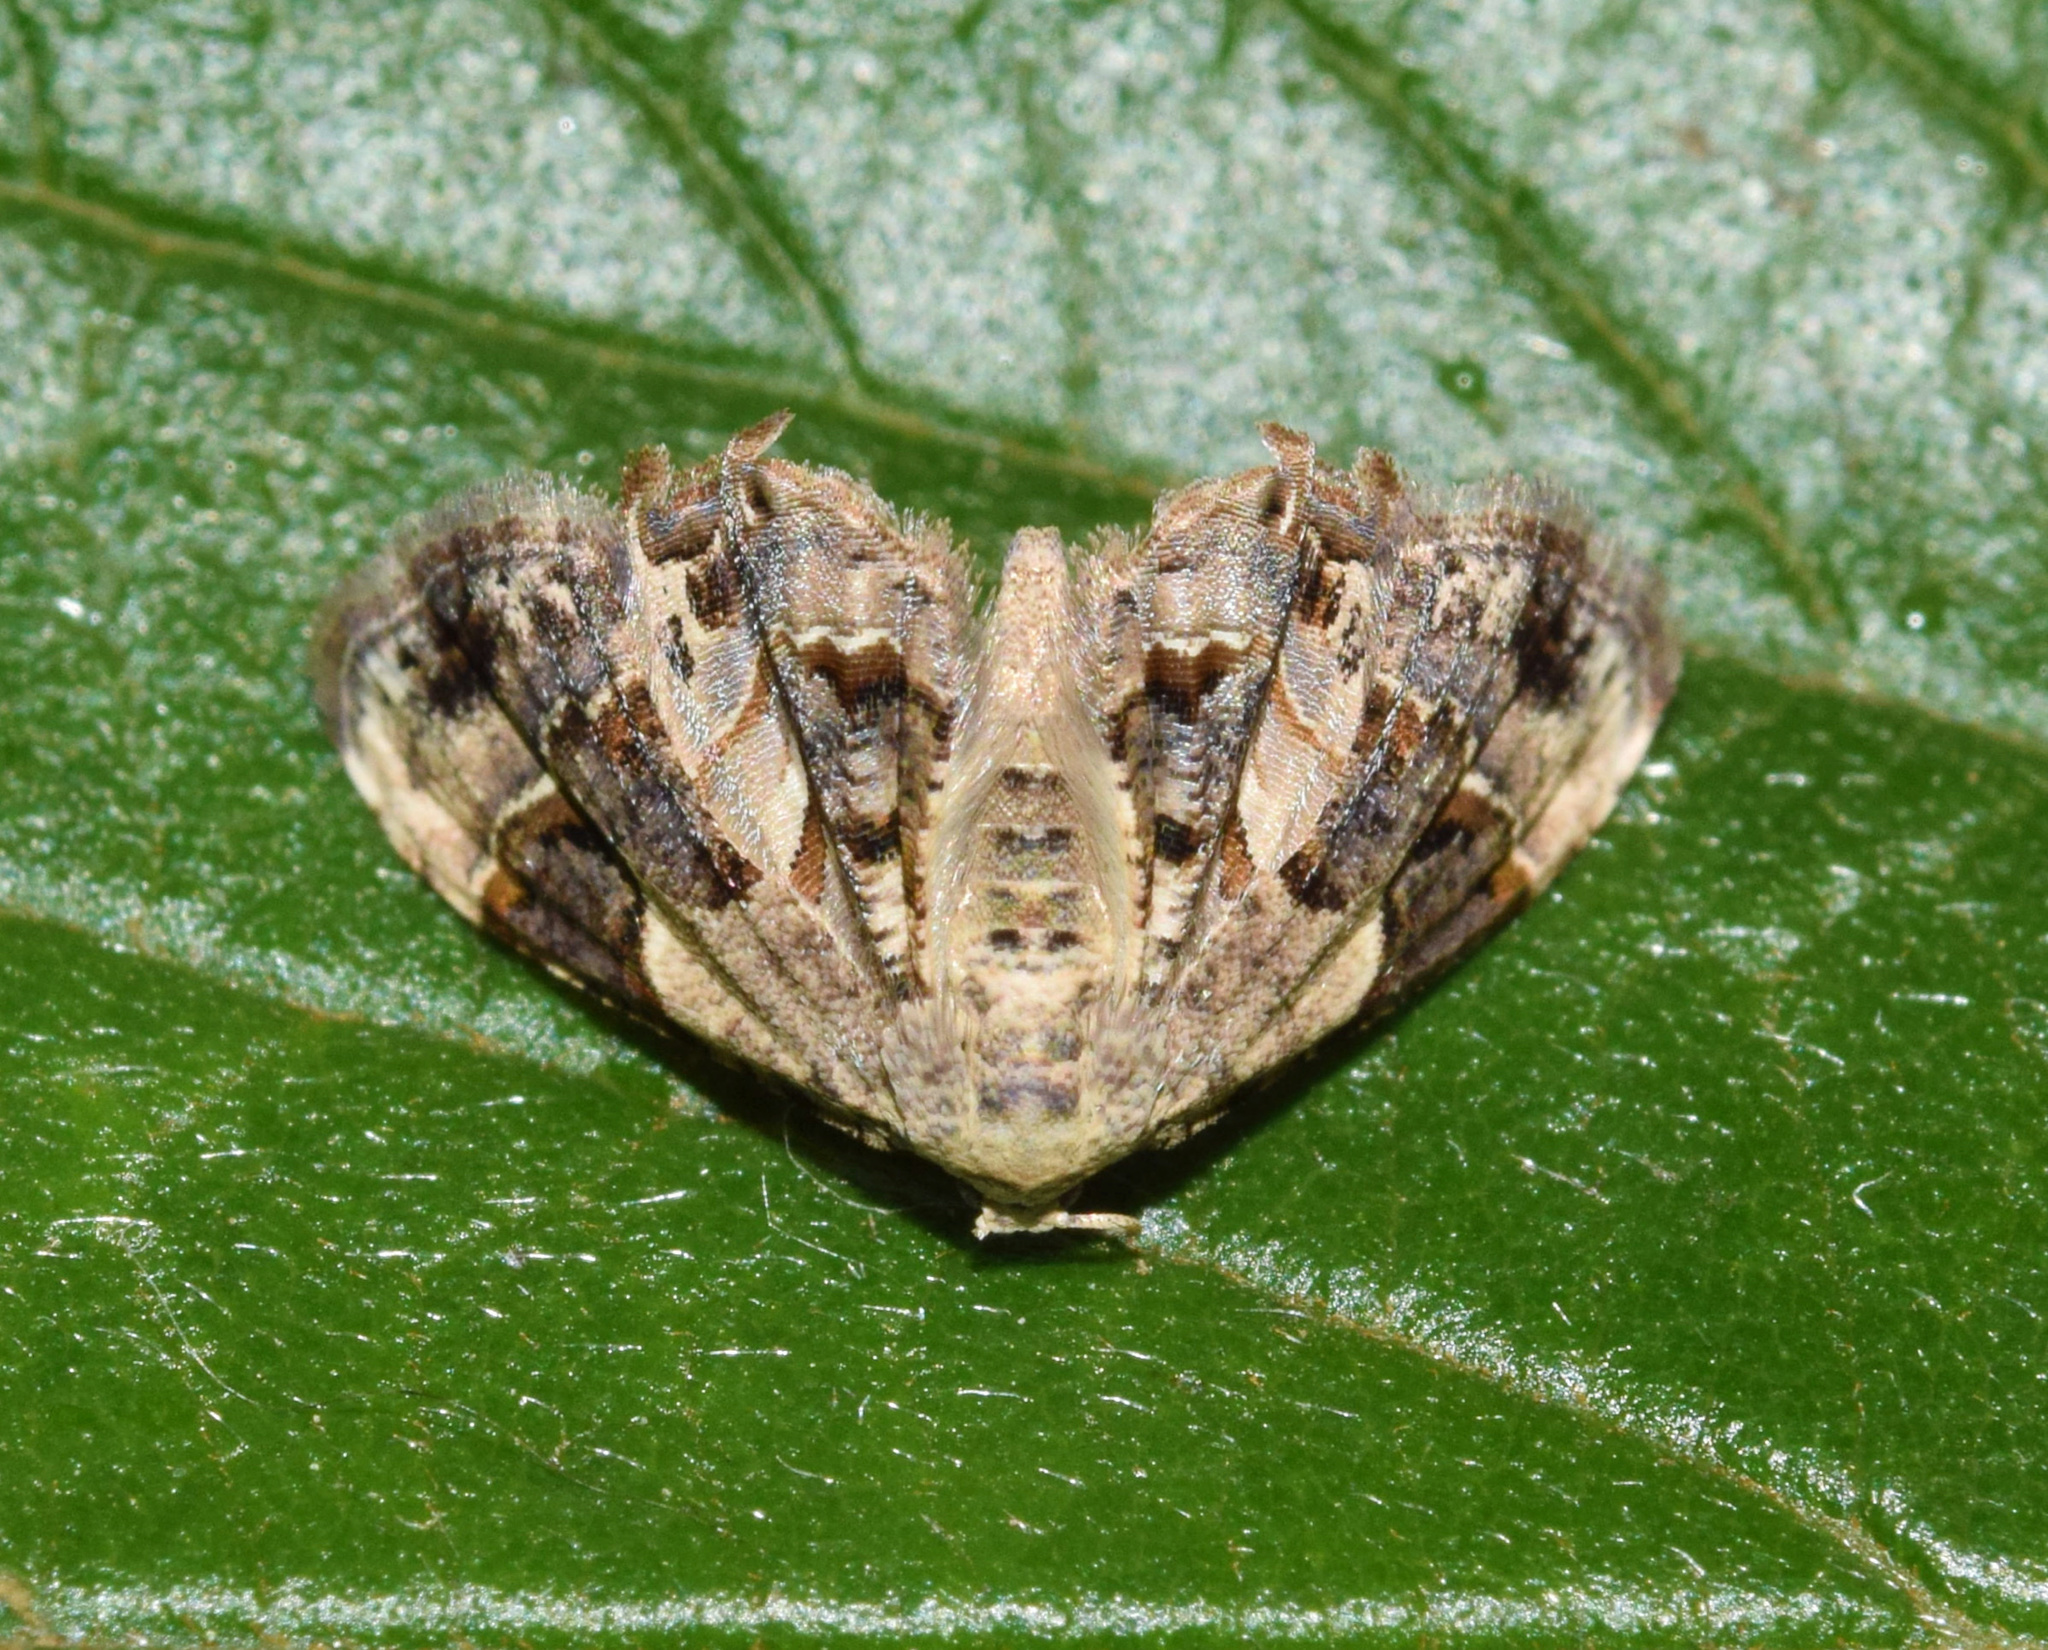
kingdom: Animalia
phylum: Arthropoda
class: Insecta
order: Lepidoptera
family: Uraniidae
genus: Leucoplema
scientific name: Leucoplema dohertyii
